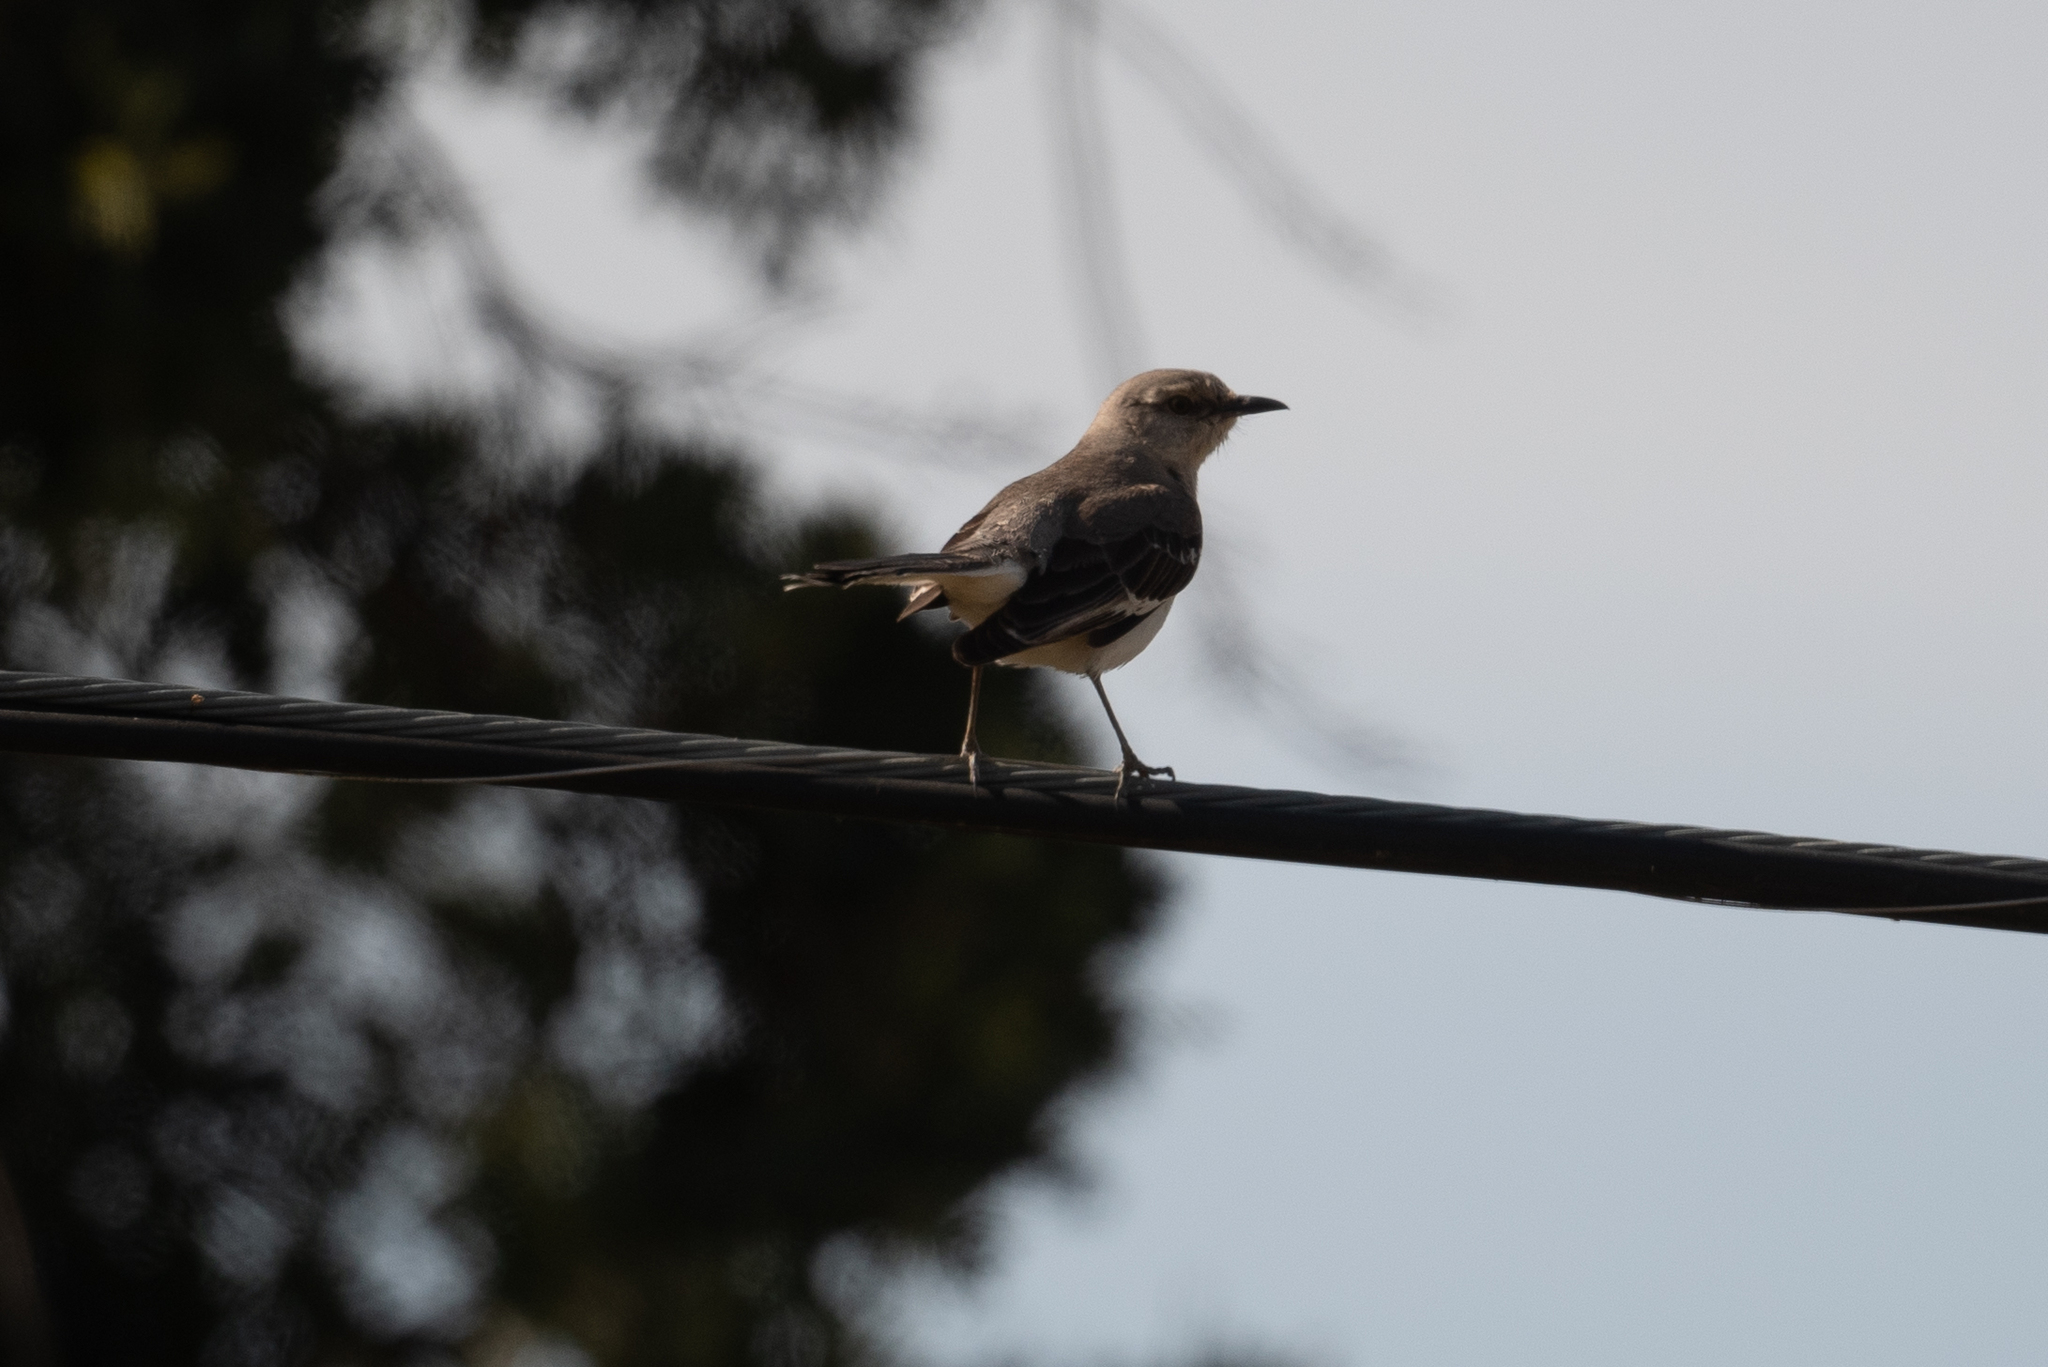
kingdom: Animalia
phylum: Chordata
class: Aves
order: Passeriformes
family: Mimidae
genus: Mimus
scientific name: Mimus polyglottos
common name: Northern mockingbird
